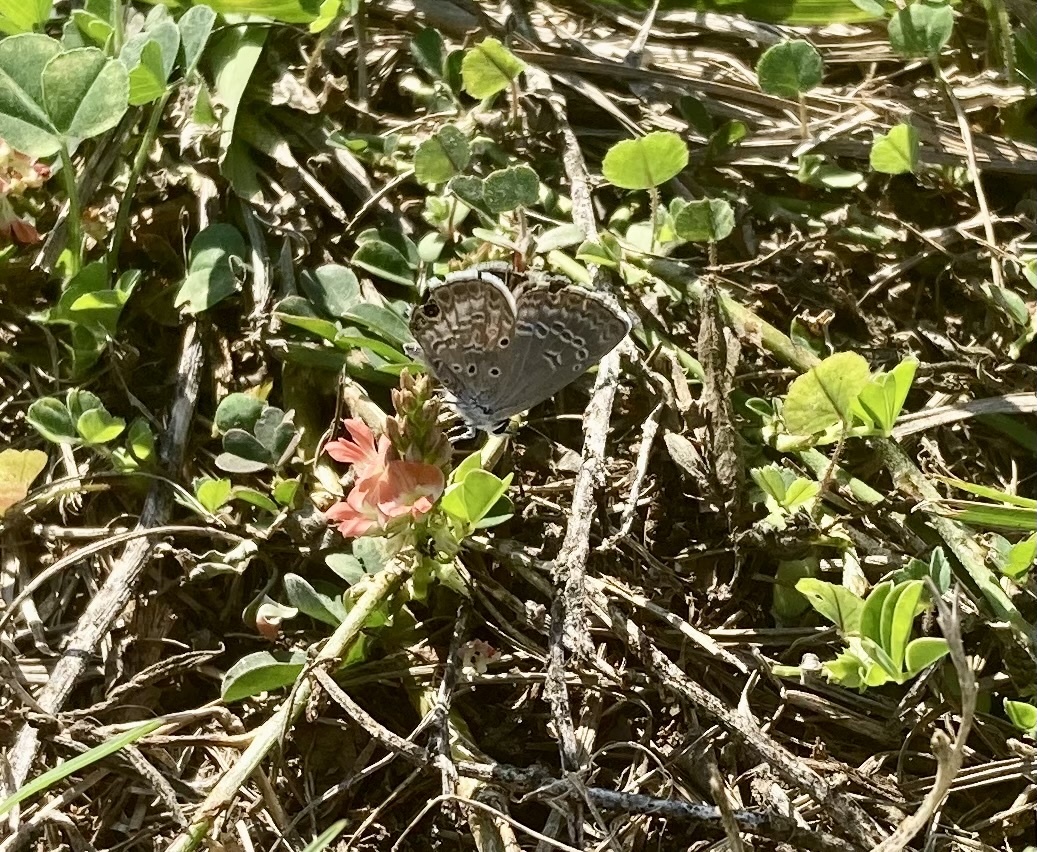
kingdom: Animalia
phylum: Arthropoda
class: Insecta
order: Lepidoptera
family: Lycaenidae
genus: Hemiargus
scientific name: Hemiargus ceraunus
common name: Ceraunus blue
